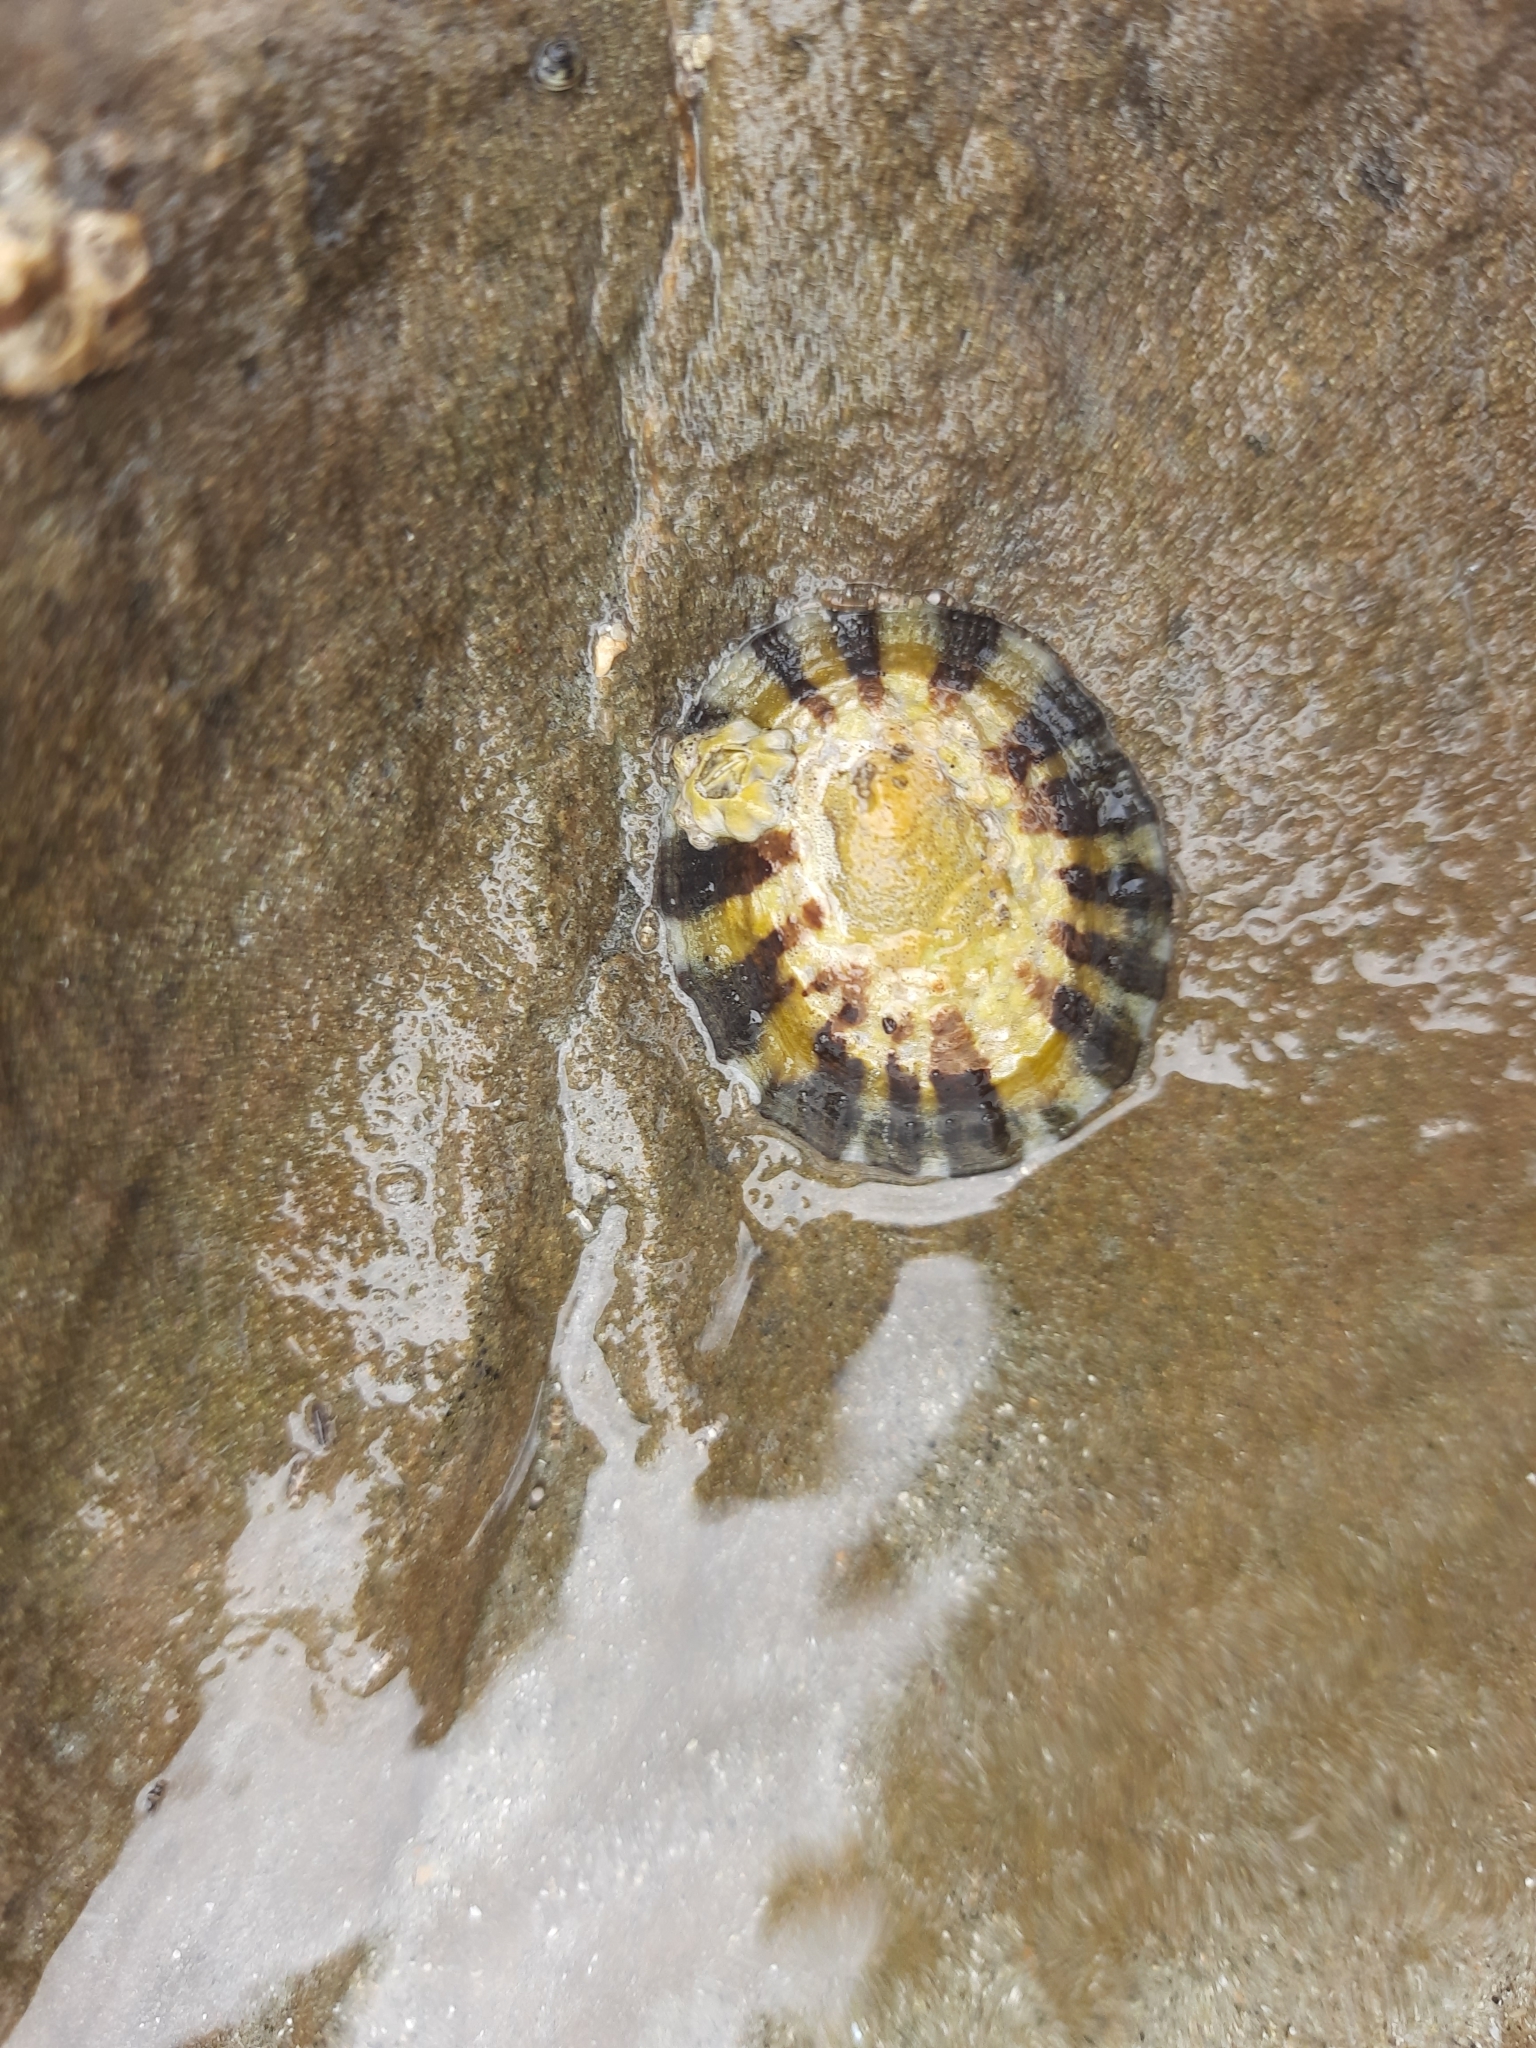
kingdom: Animalia
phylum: Mollusca
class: Gastropoda
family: Nacellidae
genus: Cellana
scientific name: Cellana radians
